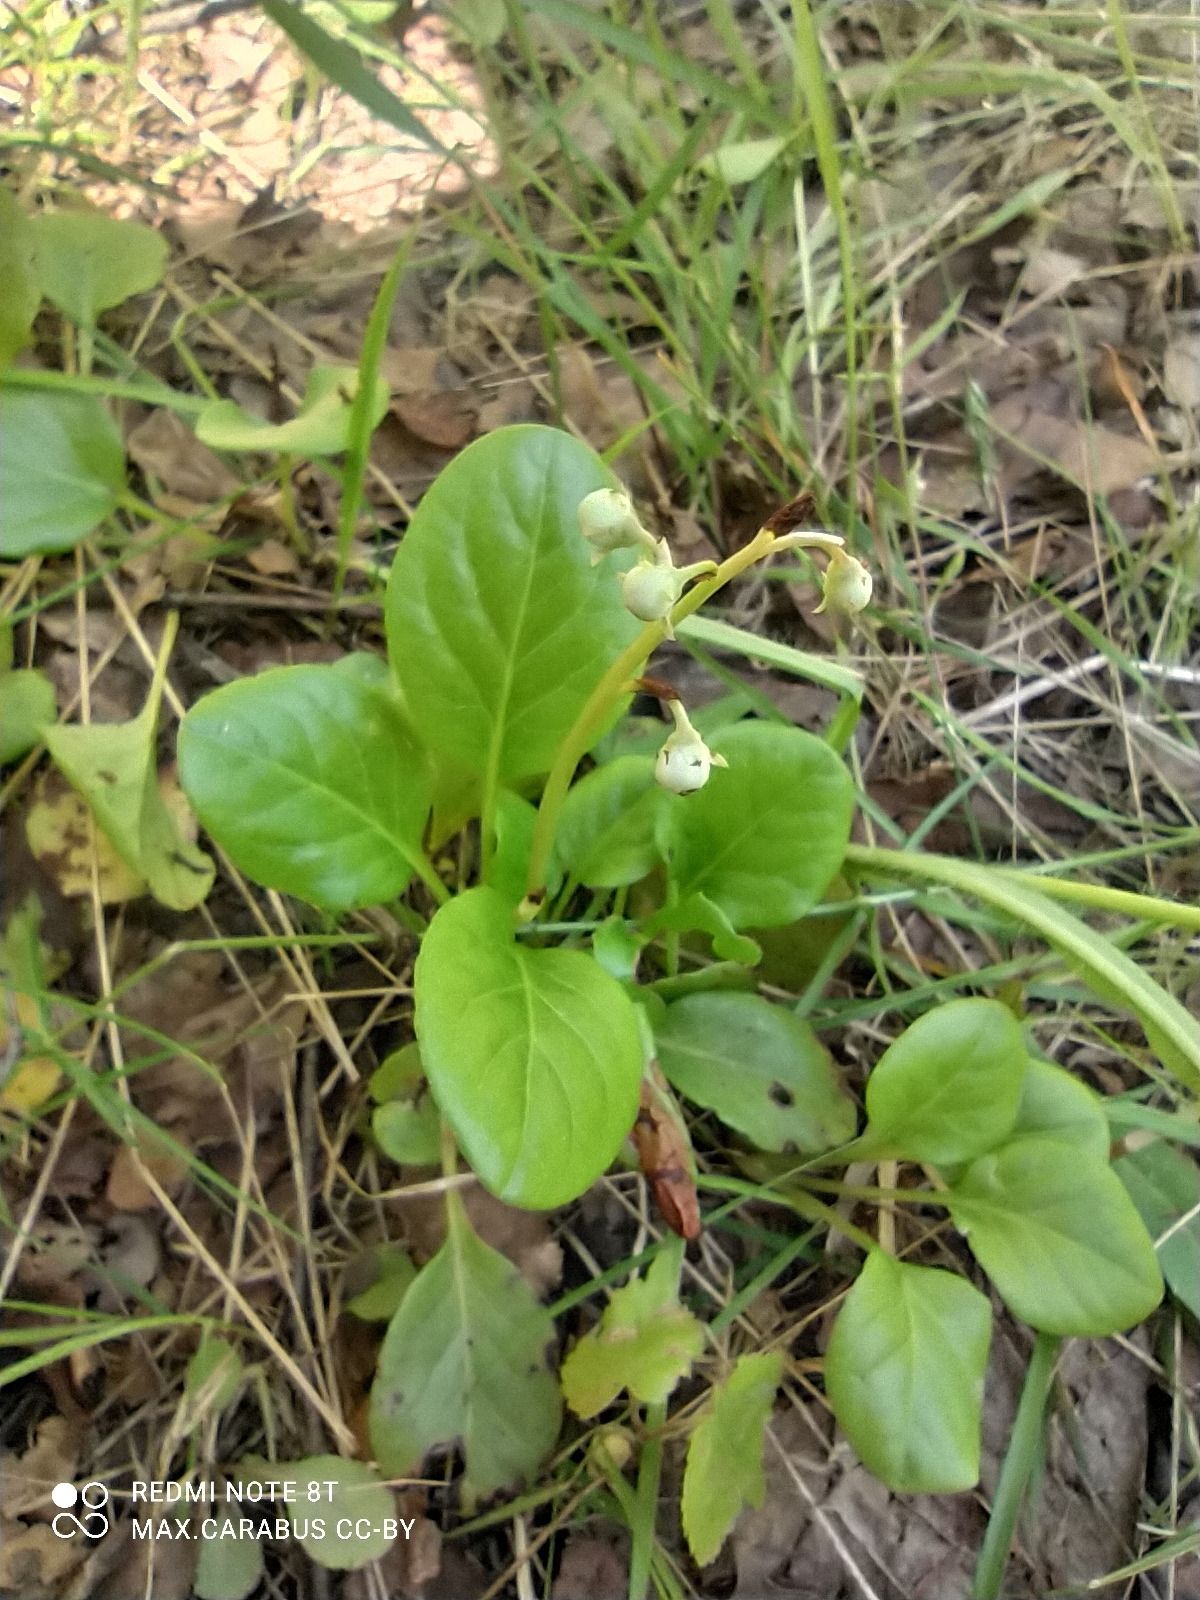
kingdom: Plantae
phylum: Tracheophyta
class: Magnoliopsida
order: Ericales
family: Ericaceae
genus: Pyrola
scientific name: Pyrola rotundifolia
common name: Round-leaved wintergreen
